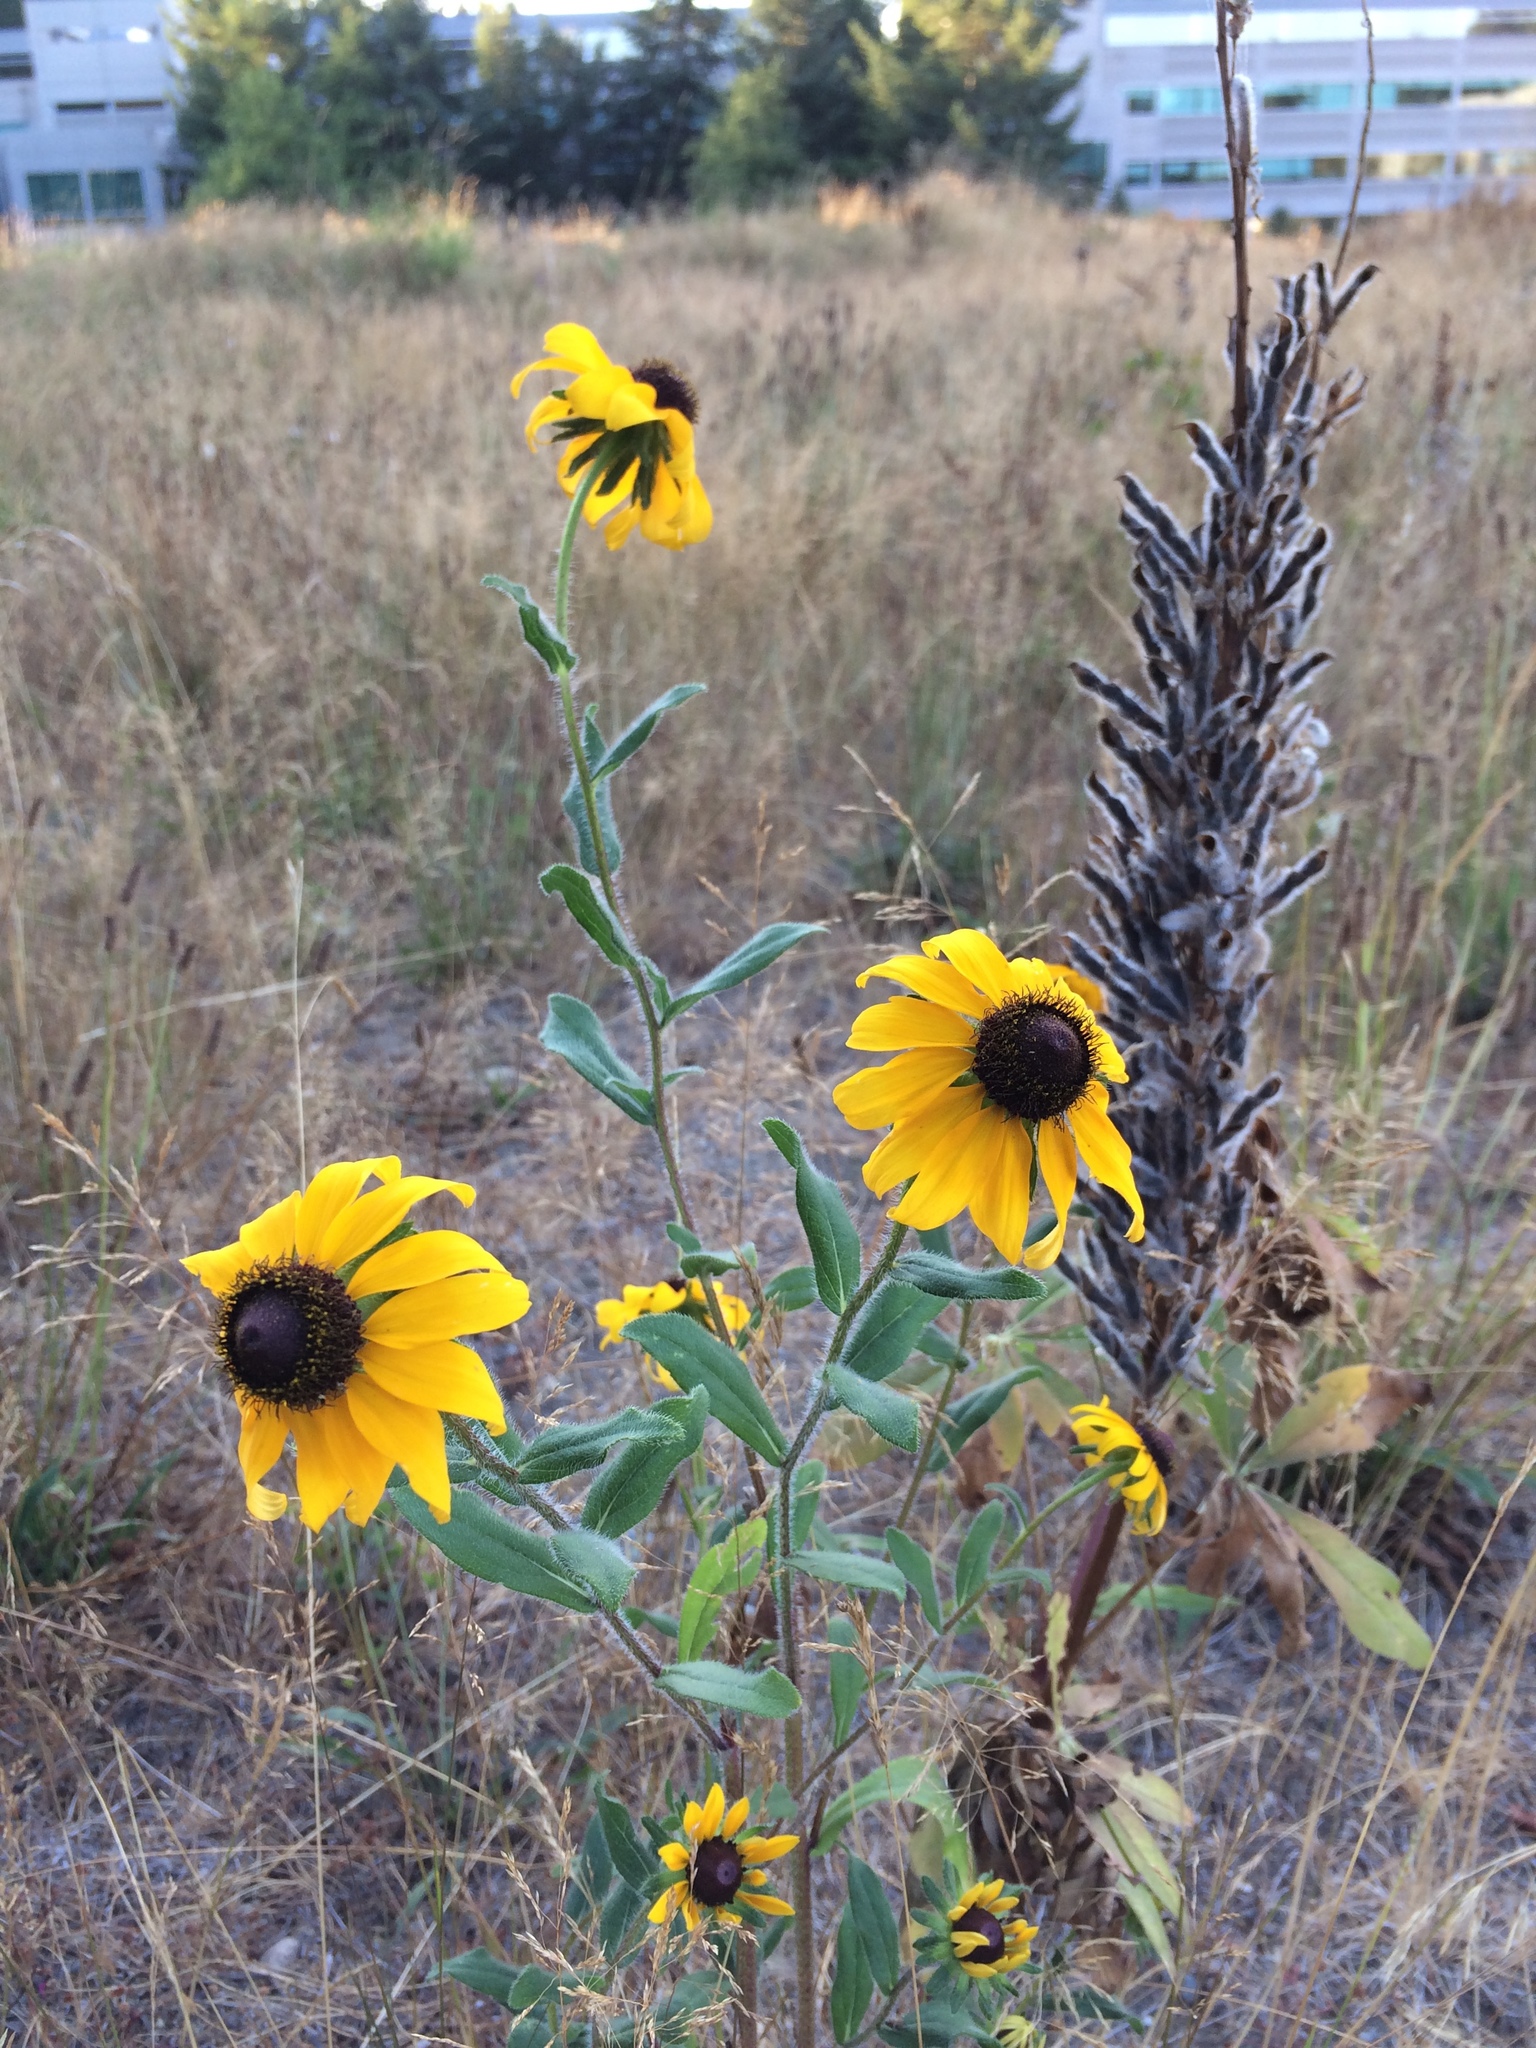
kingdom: Plantae
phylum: Tracheophyta
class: Magnoliopsida
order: Asterales
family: Asteraceae
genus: Rudbeckia
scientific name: Rudbeckia hirta
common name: Black-eyed-susan
